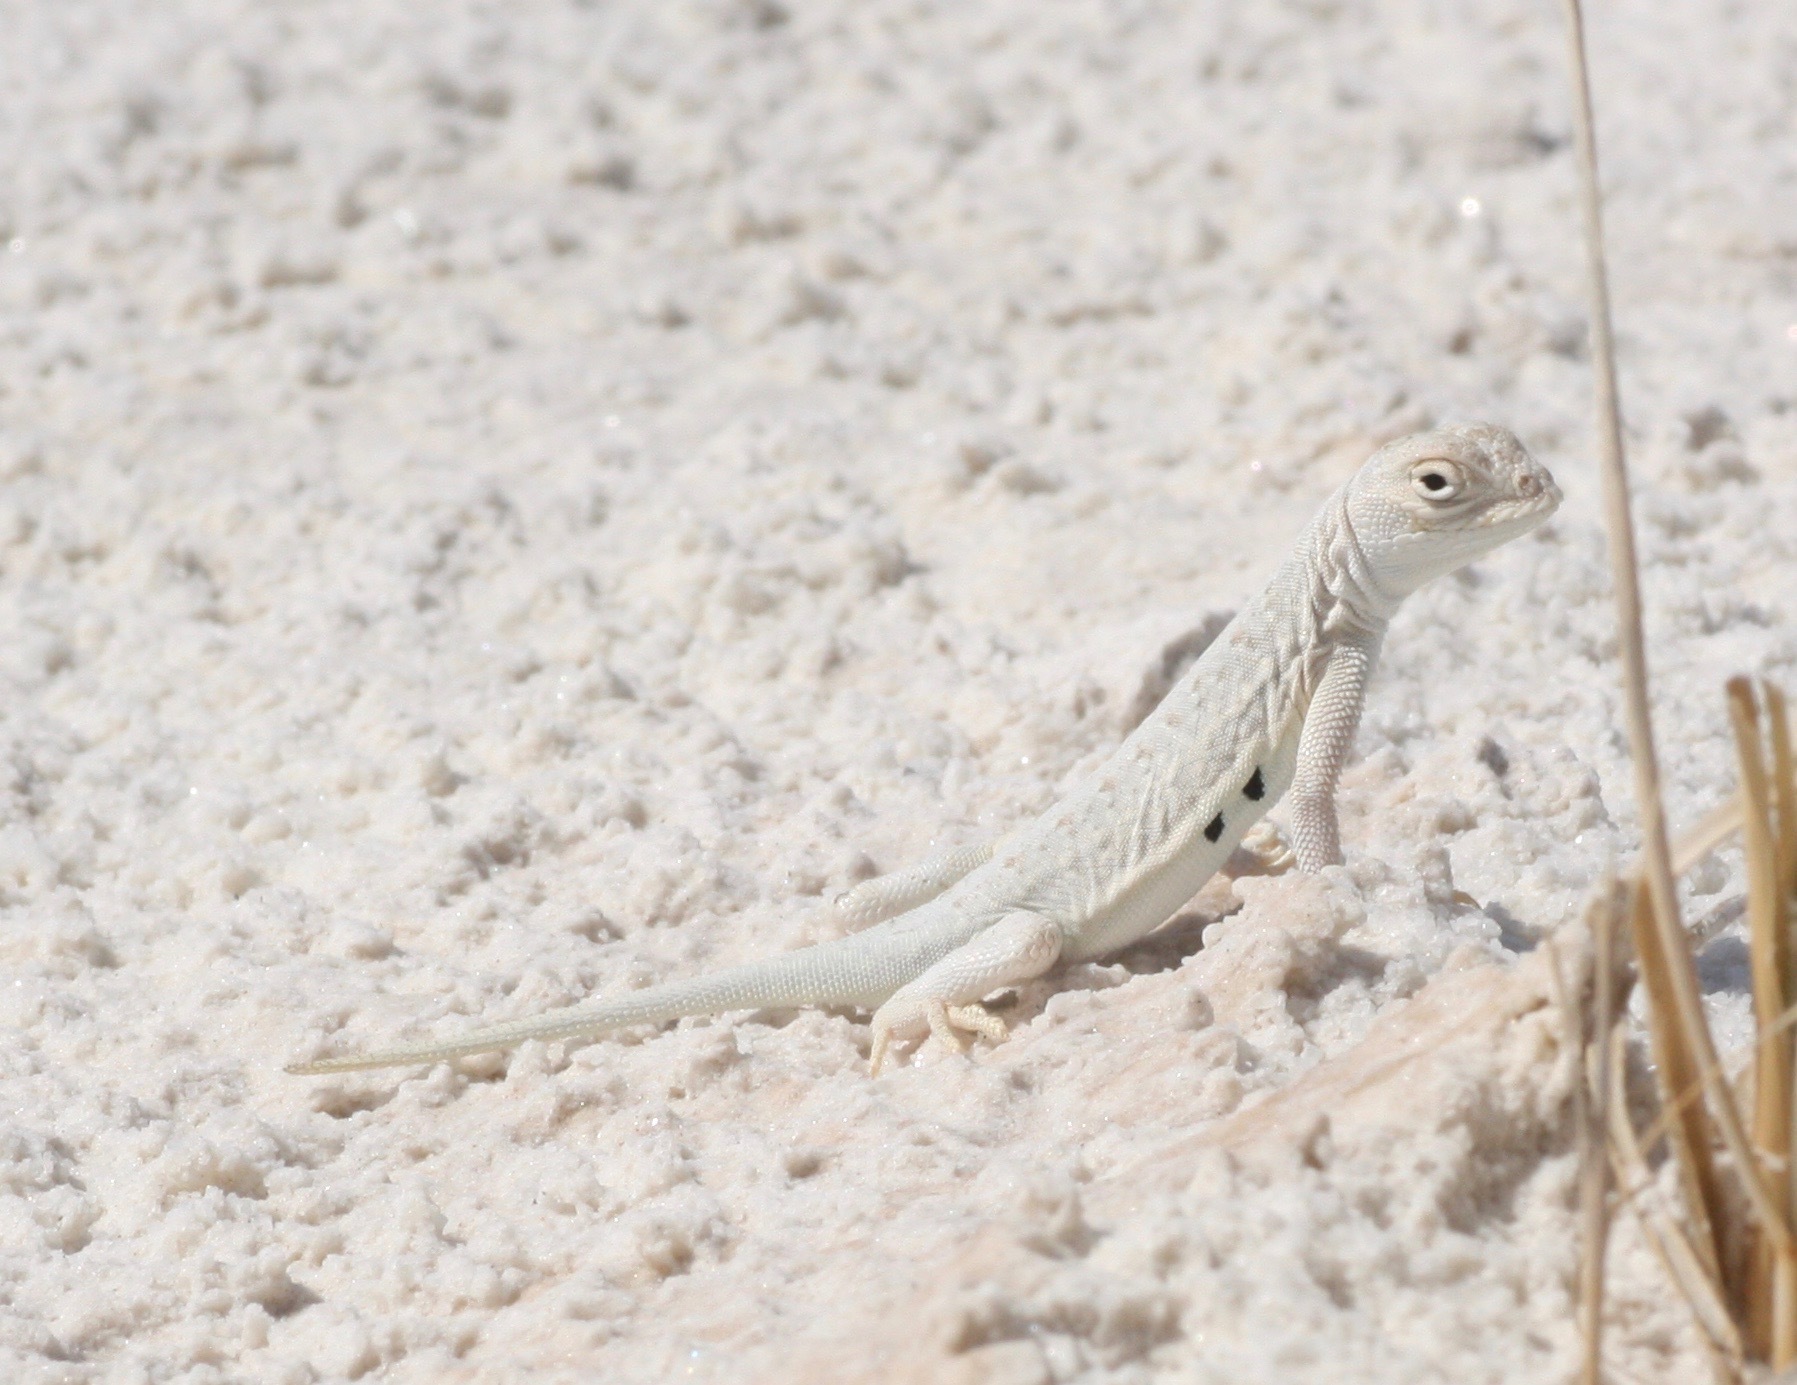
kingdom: Animalia
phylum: Chordata
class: Squamata
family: Phrynosomatidae
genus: Holbrookia
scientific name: Holbrookia maculata
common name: Lesser earless lizard
